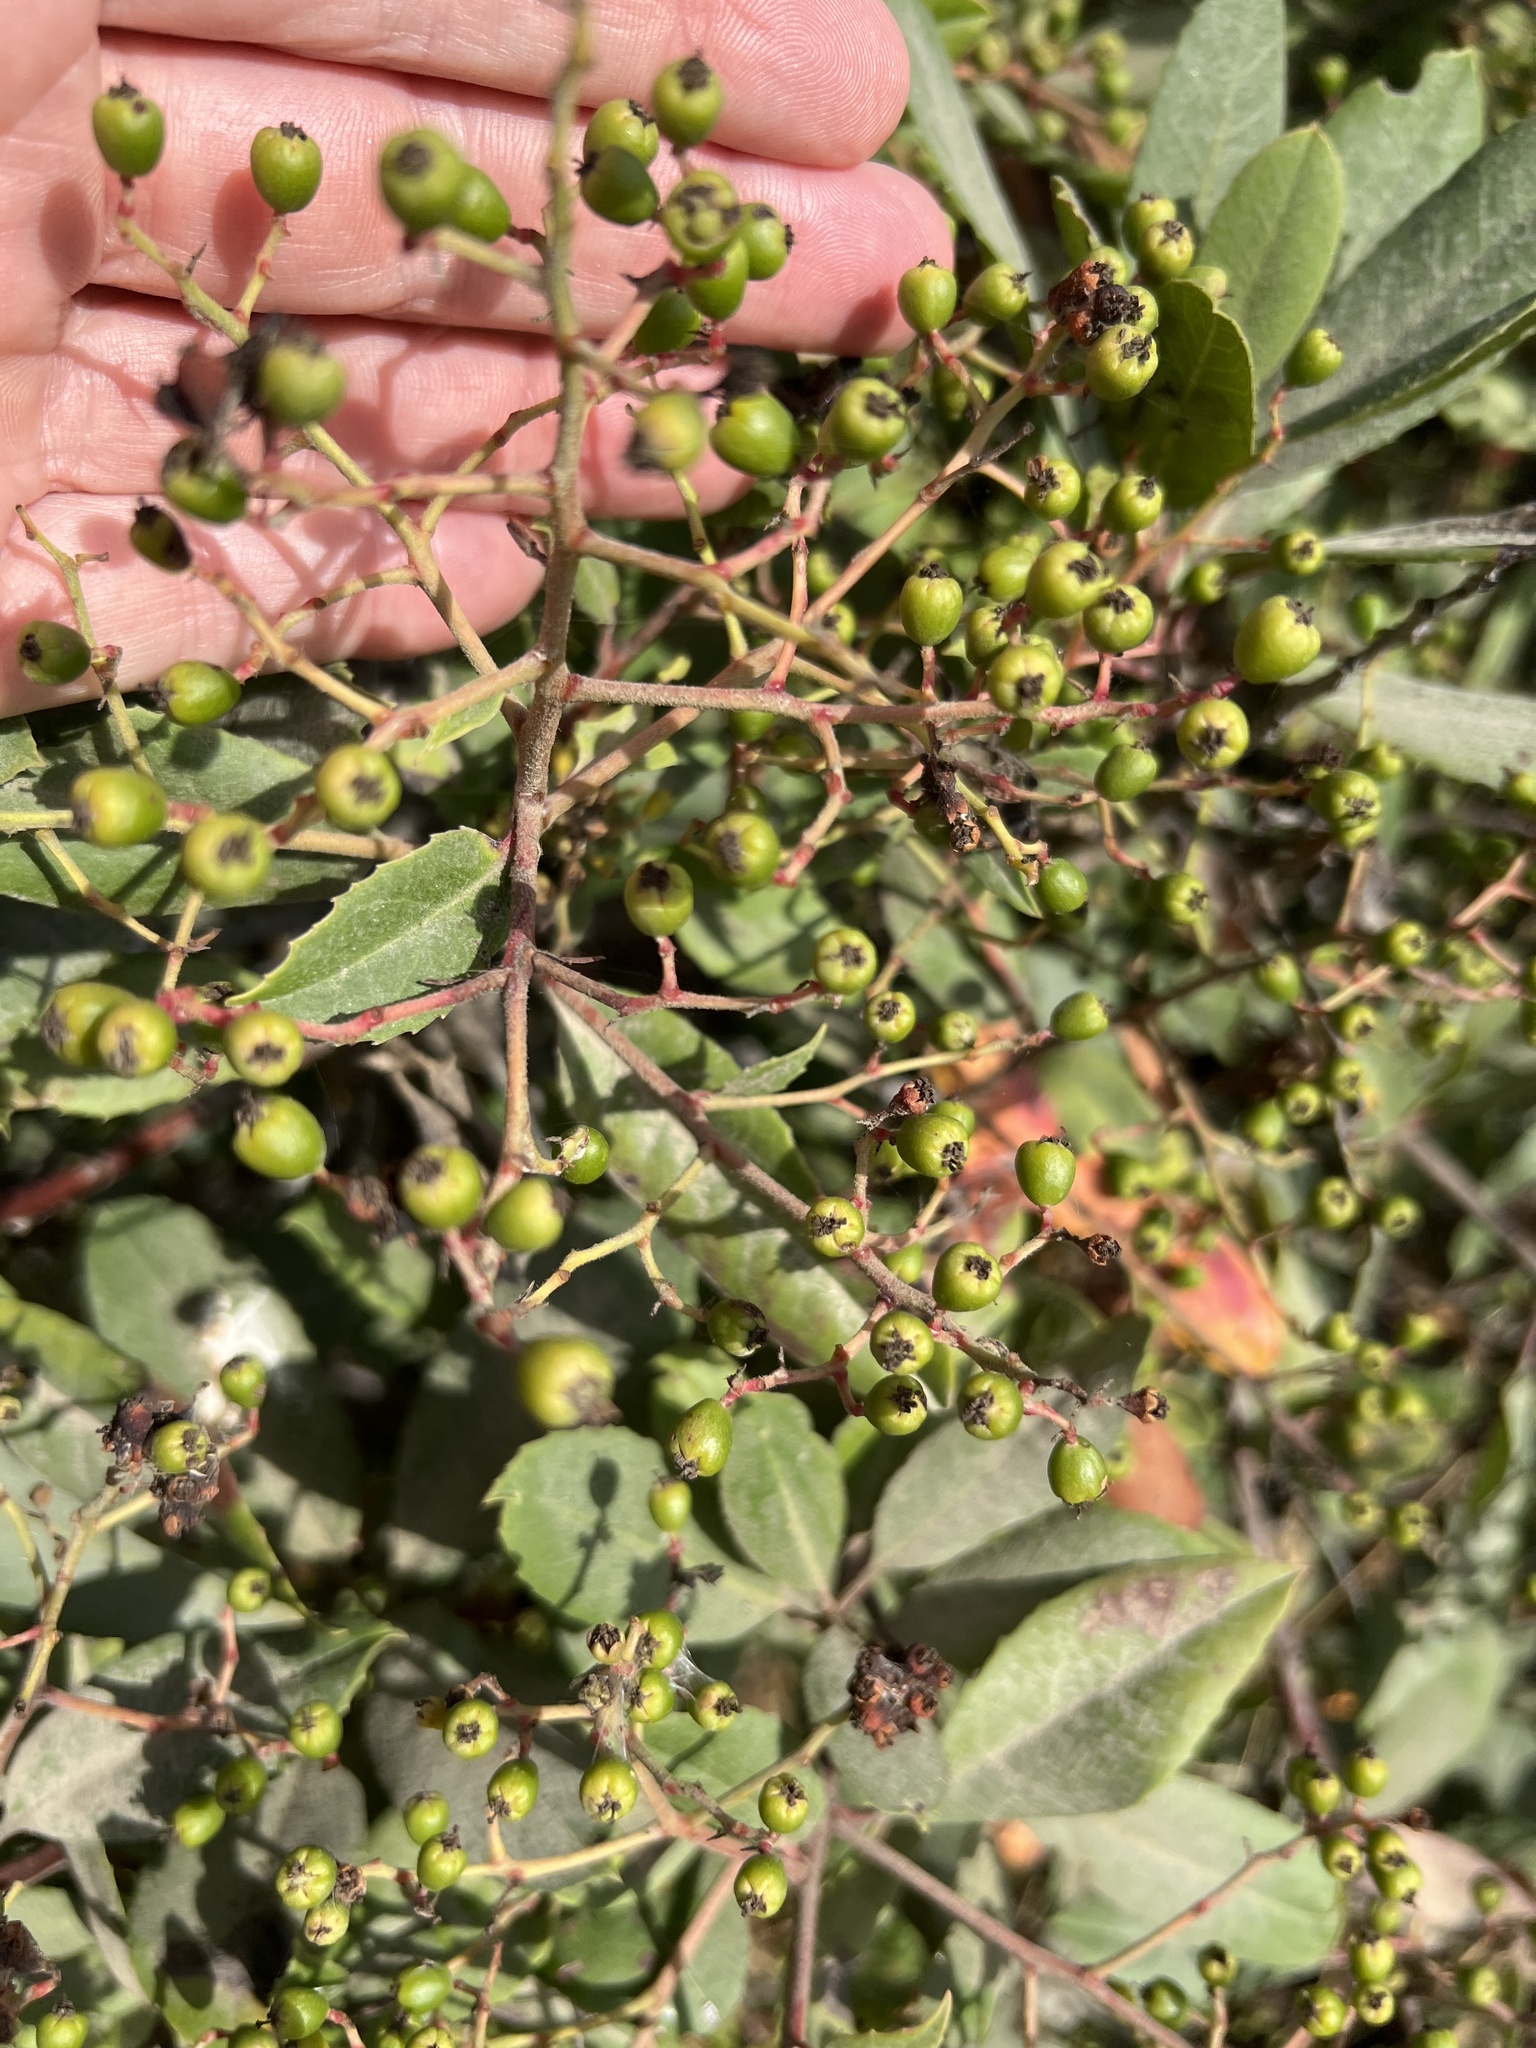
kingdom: Plantae
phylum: Tracheophyta
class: Magnoliopsida
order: Rosales
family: Rosaceae
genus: Heteromeles
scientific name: Heteromeles arbutifolia
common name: California-holly
